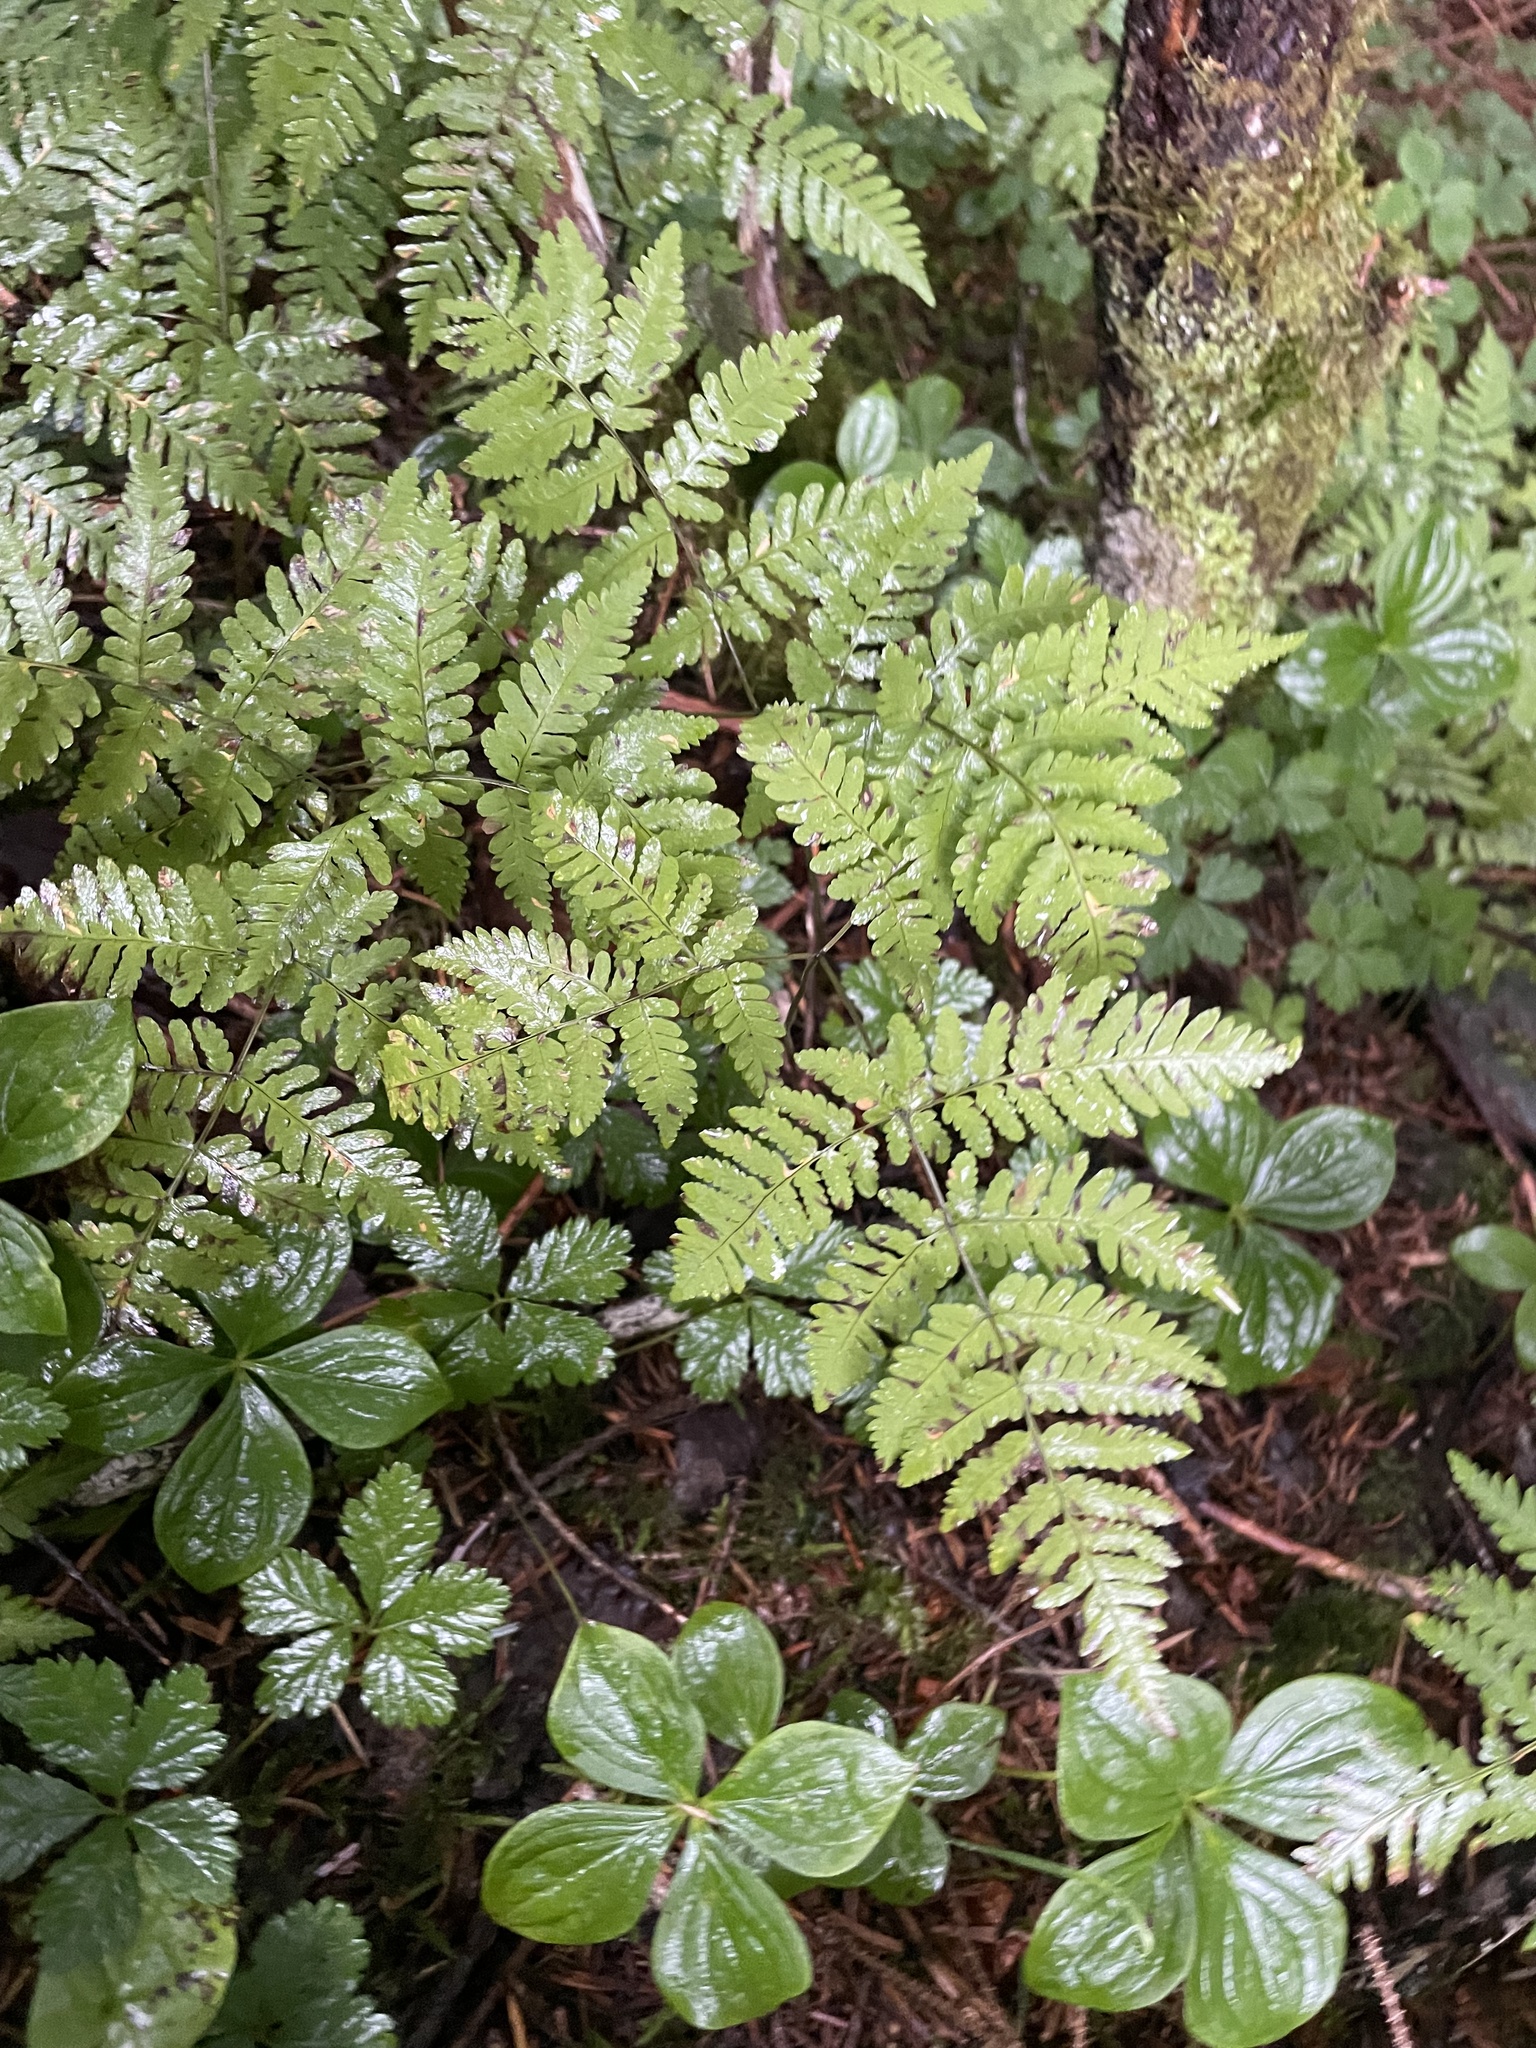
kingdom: Plantae
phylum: Tracheophyta
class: Polypodiopsida
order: Polypodiales
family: Cystopteridaceae
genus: Gymnocarpium
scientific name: Gymnocarpium disjunctum
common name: Western oak fern
